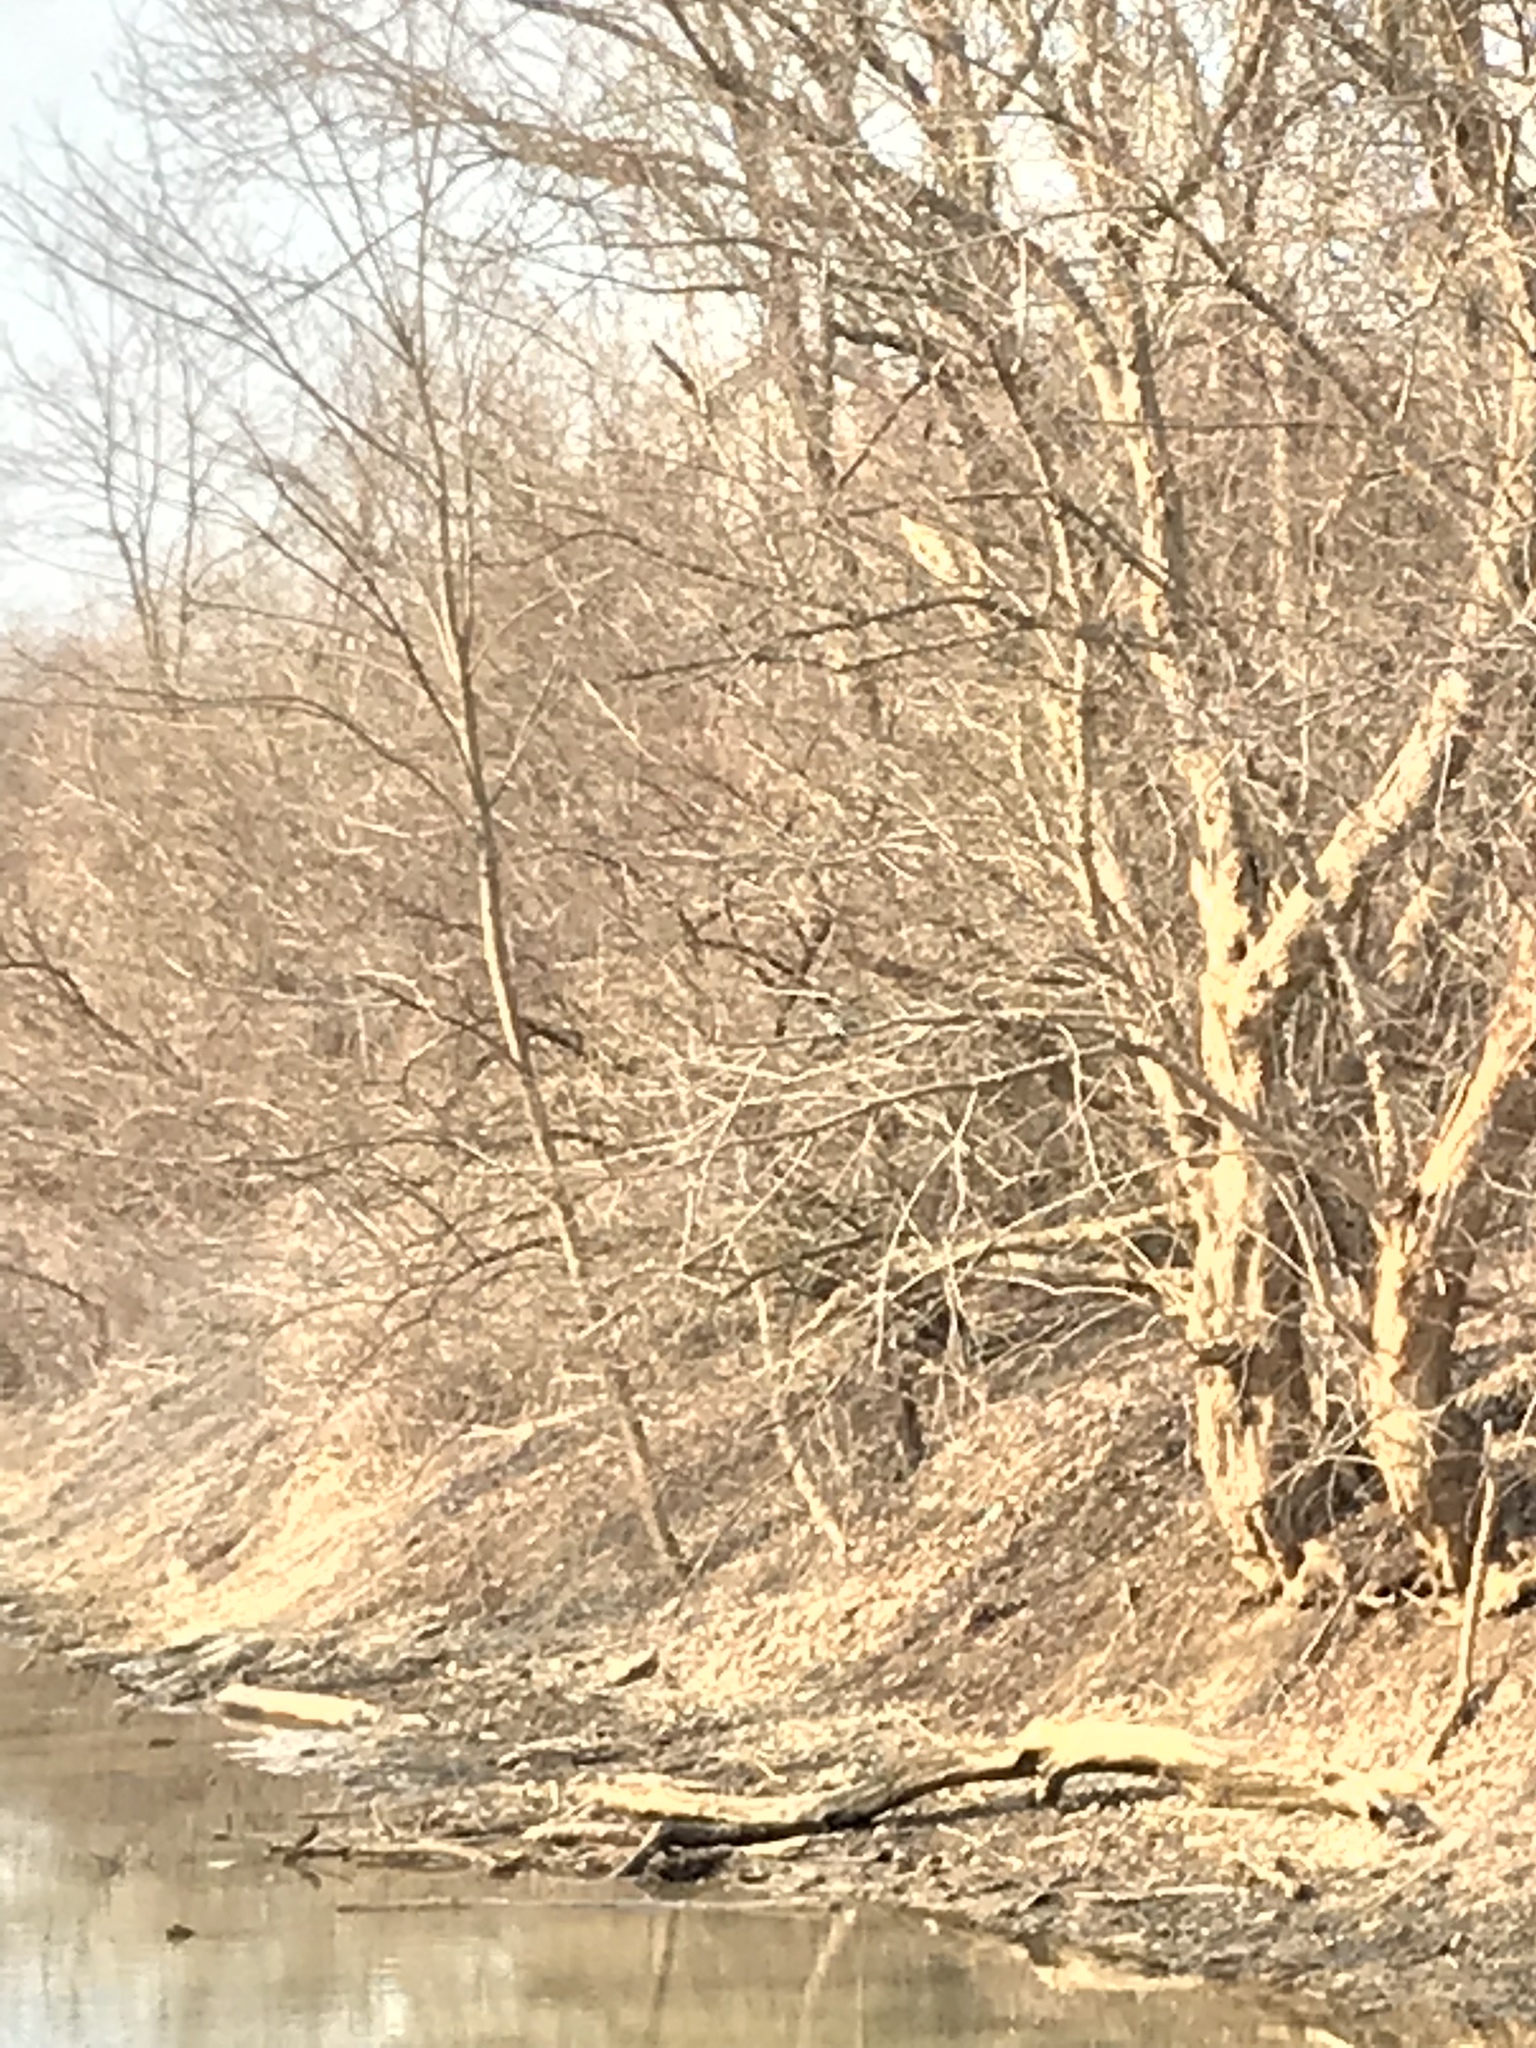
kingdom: Animalia
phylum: Chordata
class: Aves
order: Coraciiformes
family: Alcedinidae
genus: Megaceryle
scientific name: Megaceryle alcyon
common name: Belted kingfisher
